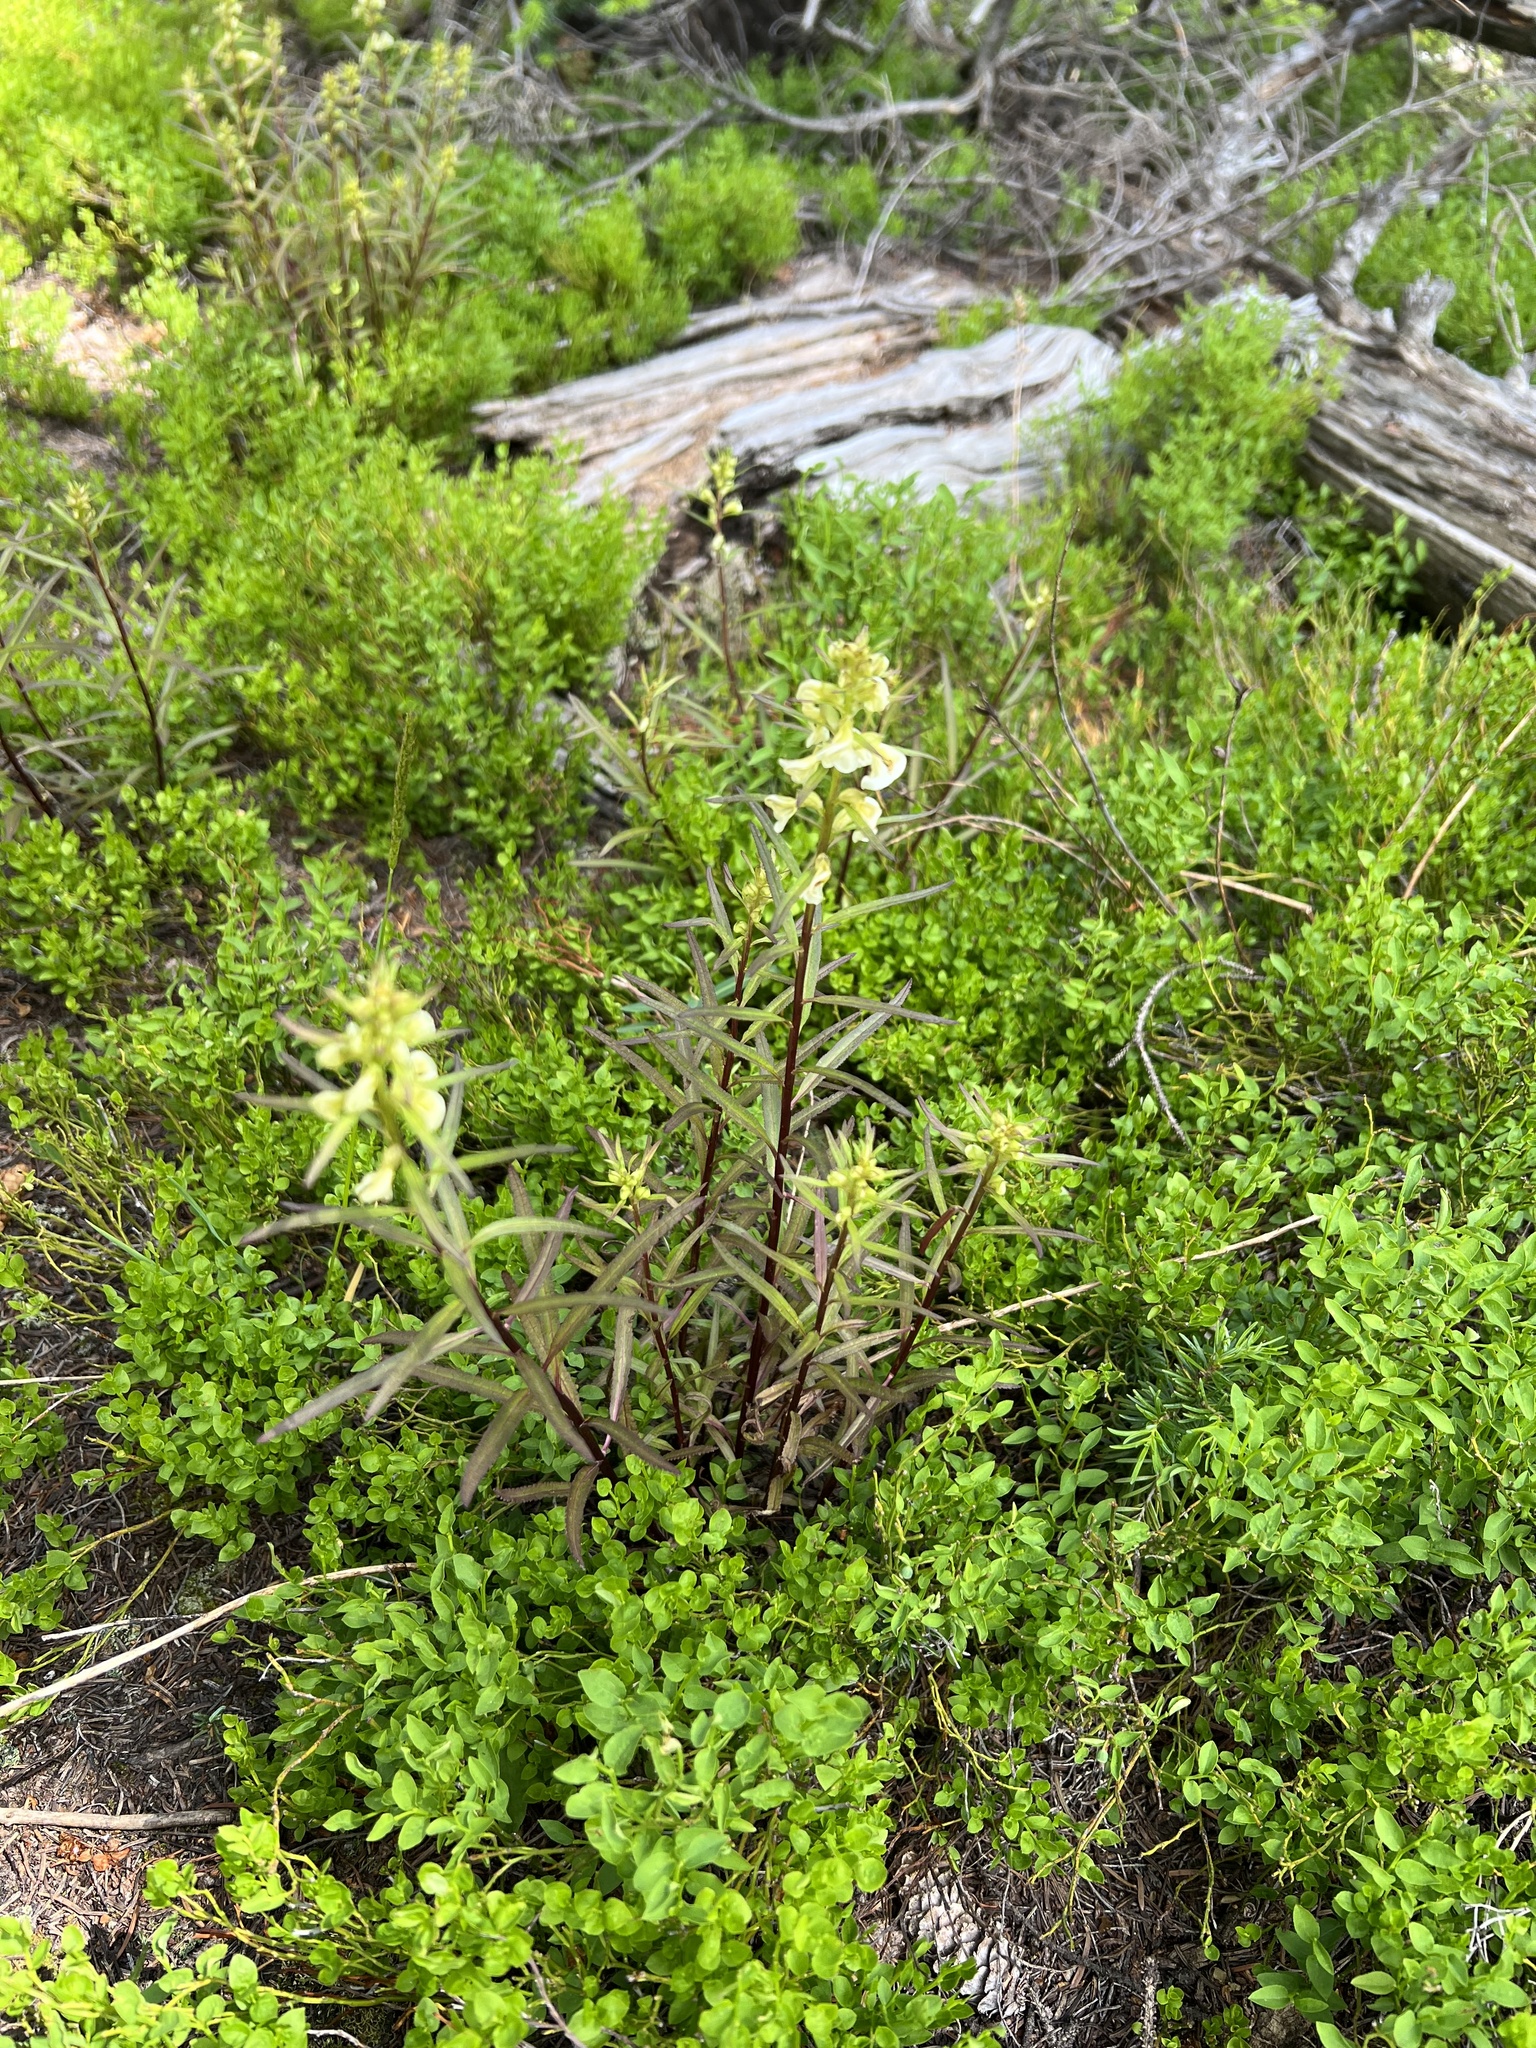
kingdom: Plantae
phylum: Tracheophyta
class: Magnoliopsida
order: Lamiales
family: Orobanchaceae
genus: Pedicularis
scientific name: Pedicularis racemosa
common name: Leafy lousewort
